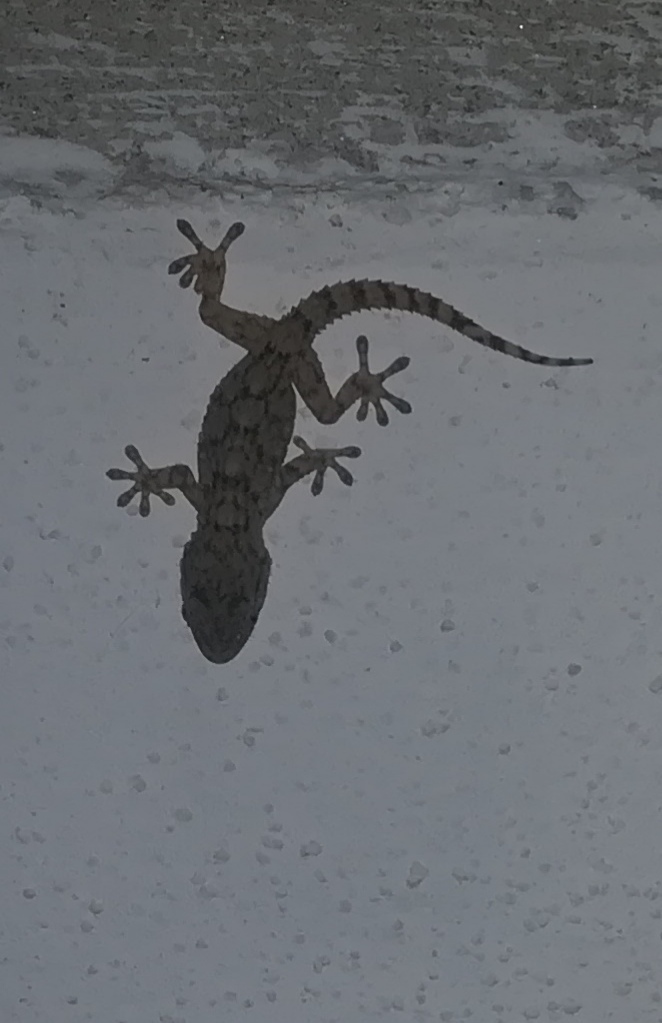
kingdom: Animalia
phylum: Chordata
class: Squamata
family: Phyllodactylidae
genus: Tarentola
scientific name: Tarentola mauritanica
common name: Moorish gecko
